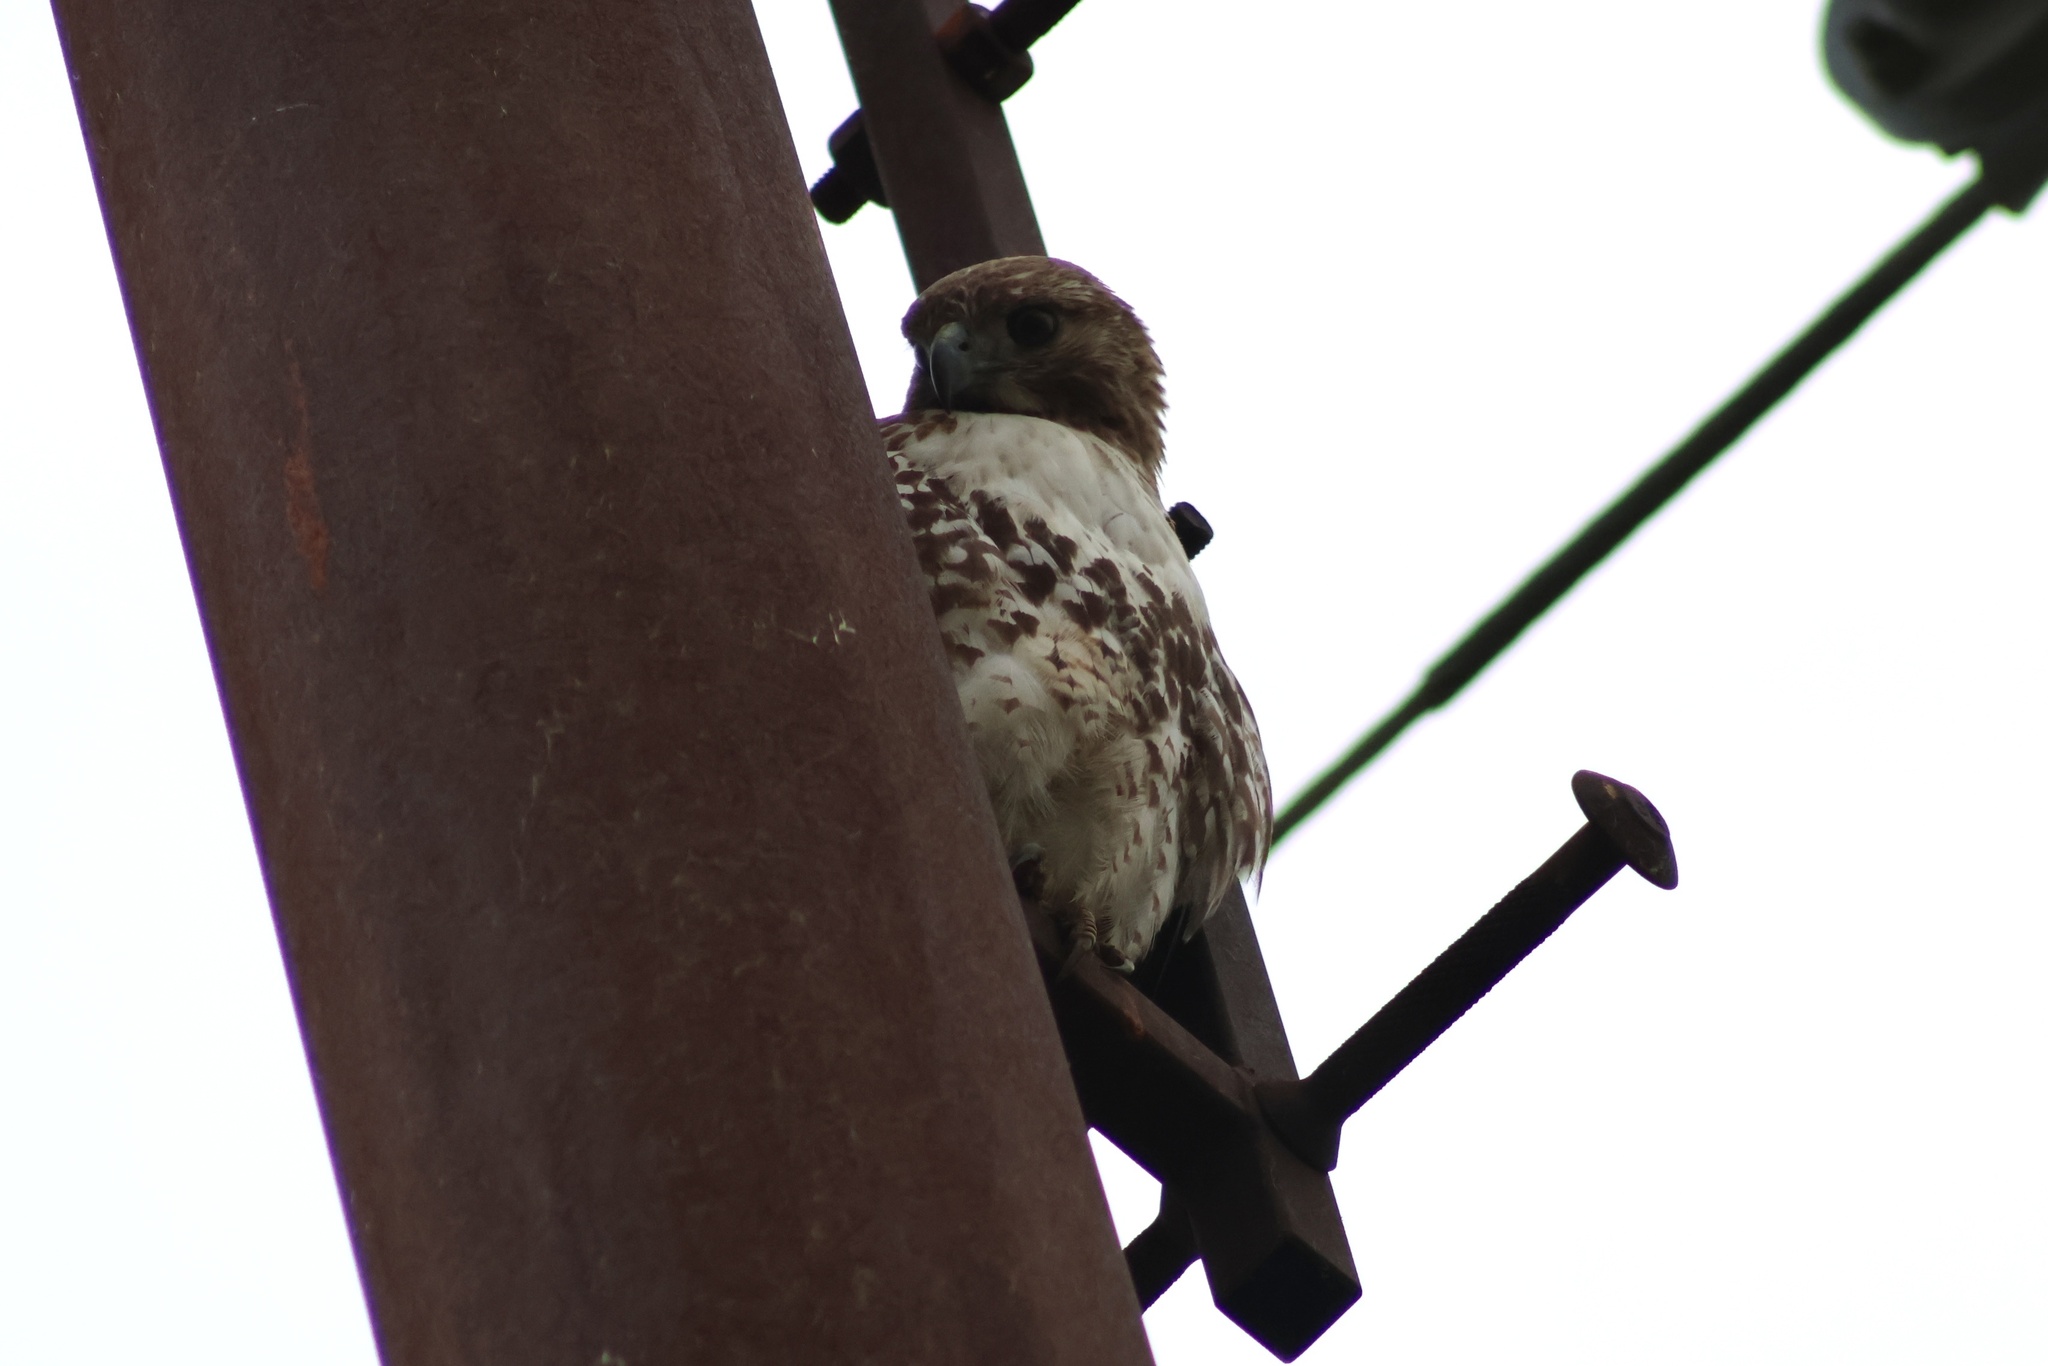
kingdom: Animalia
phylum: Chordata
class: Aves
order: Accipitriformes
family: Accipitridae
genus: Buteo
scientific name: Buteo jamaicensis
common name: Red-tailed hawk
